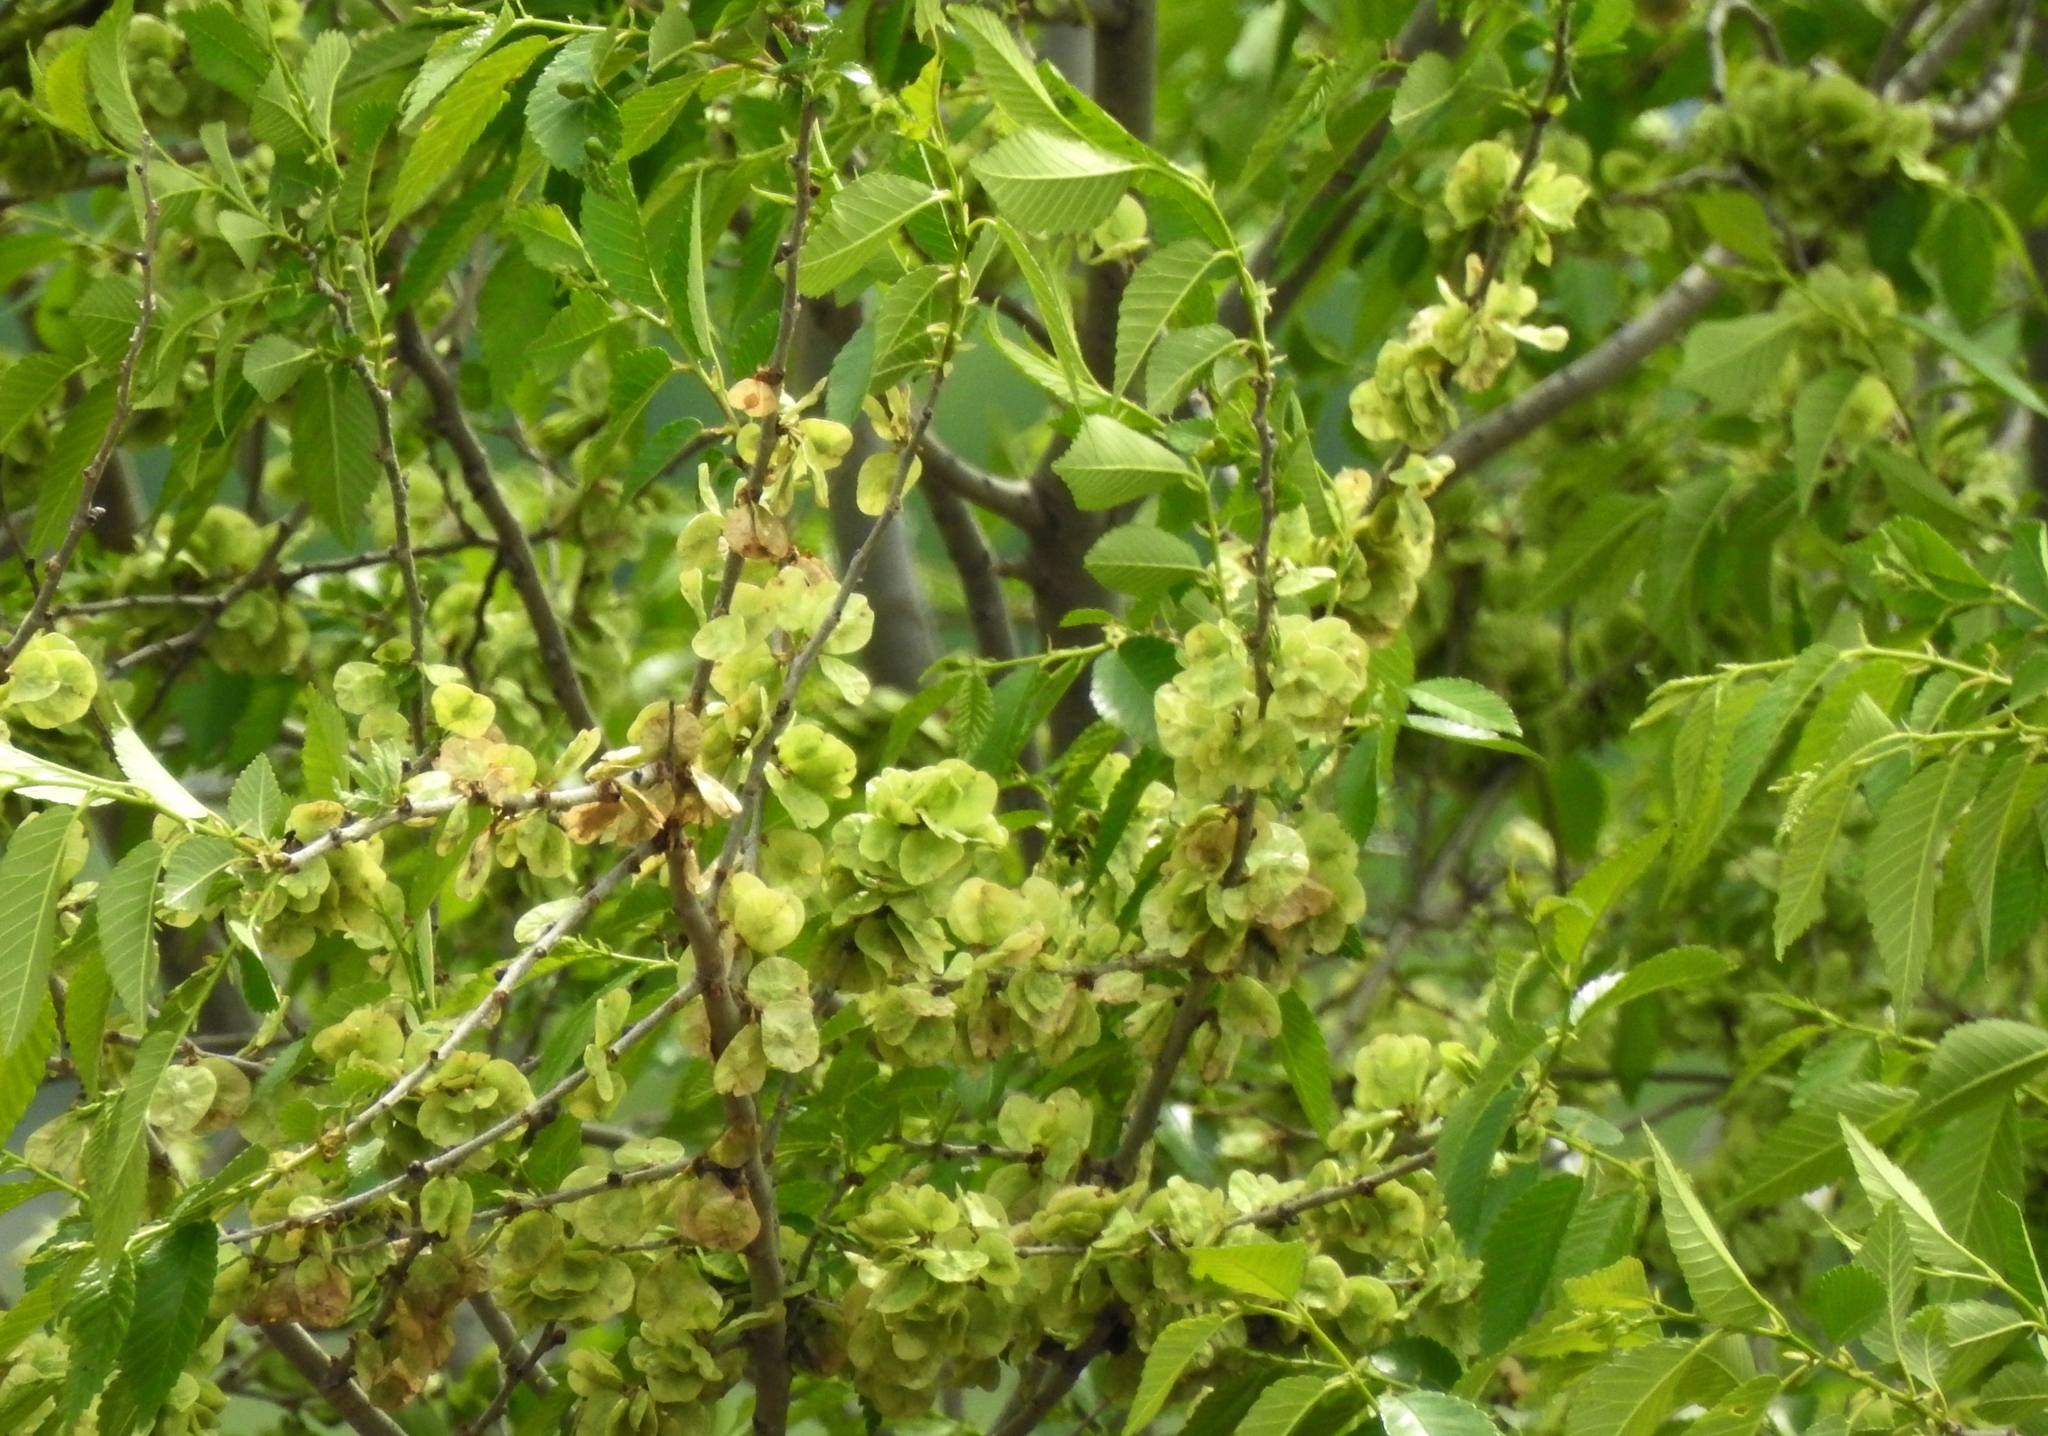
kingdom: Plantae
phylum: Tracheophyta
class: Magnoliopsida
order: Rosales
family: Ulmaceae
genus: Ulmus
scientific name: Ulmus pumila
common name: Siberian elm
